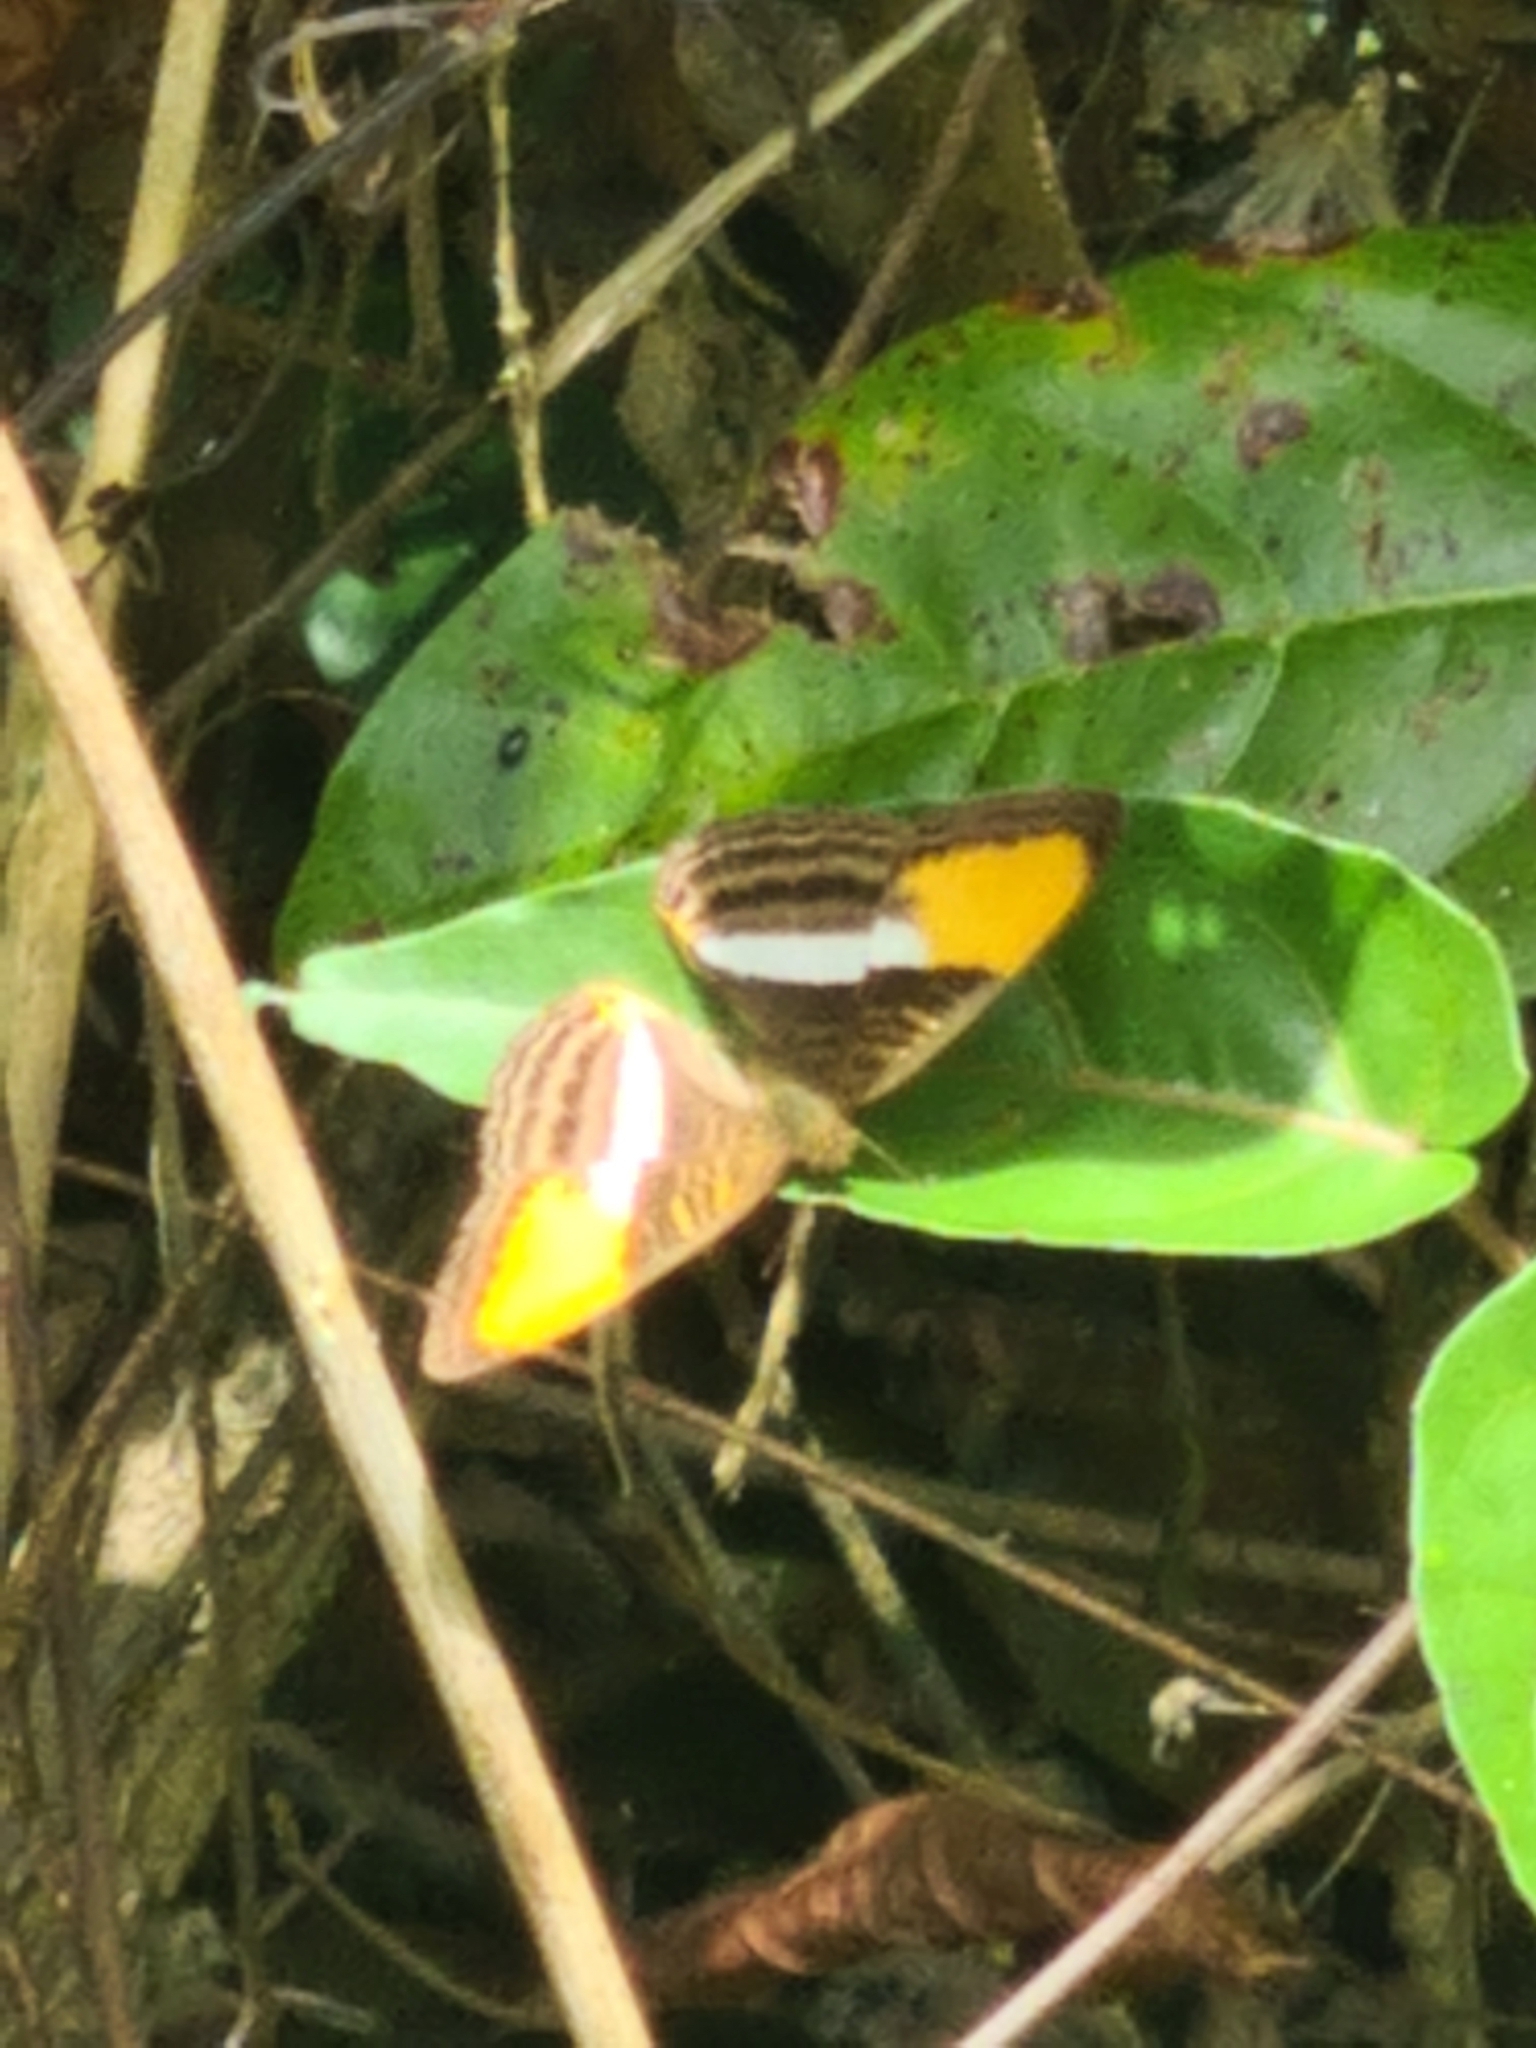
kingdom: Animalia
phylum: Arthropoda
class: Insecta
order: Lepidoptera
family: Nymphalidae
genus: Limenitis
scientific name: Limenitis cytherea
